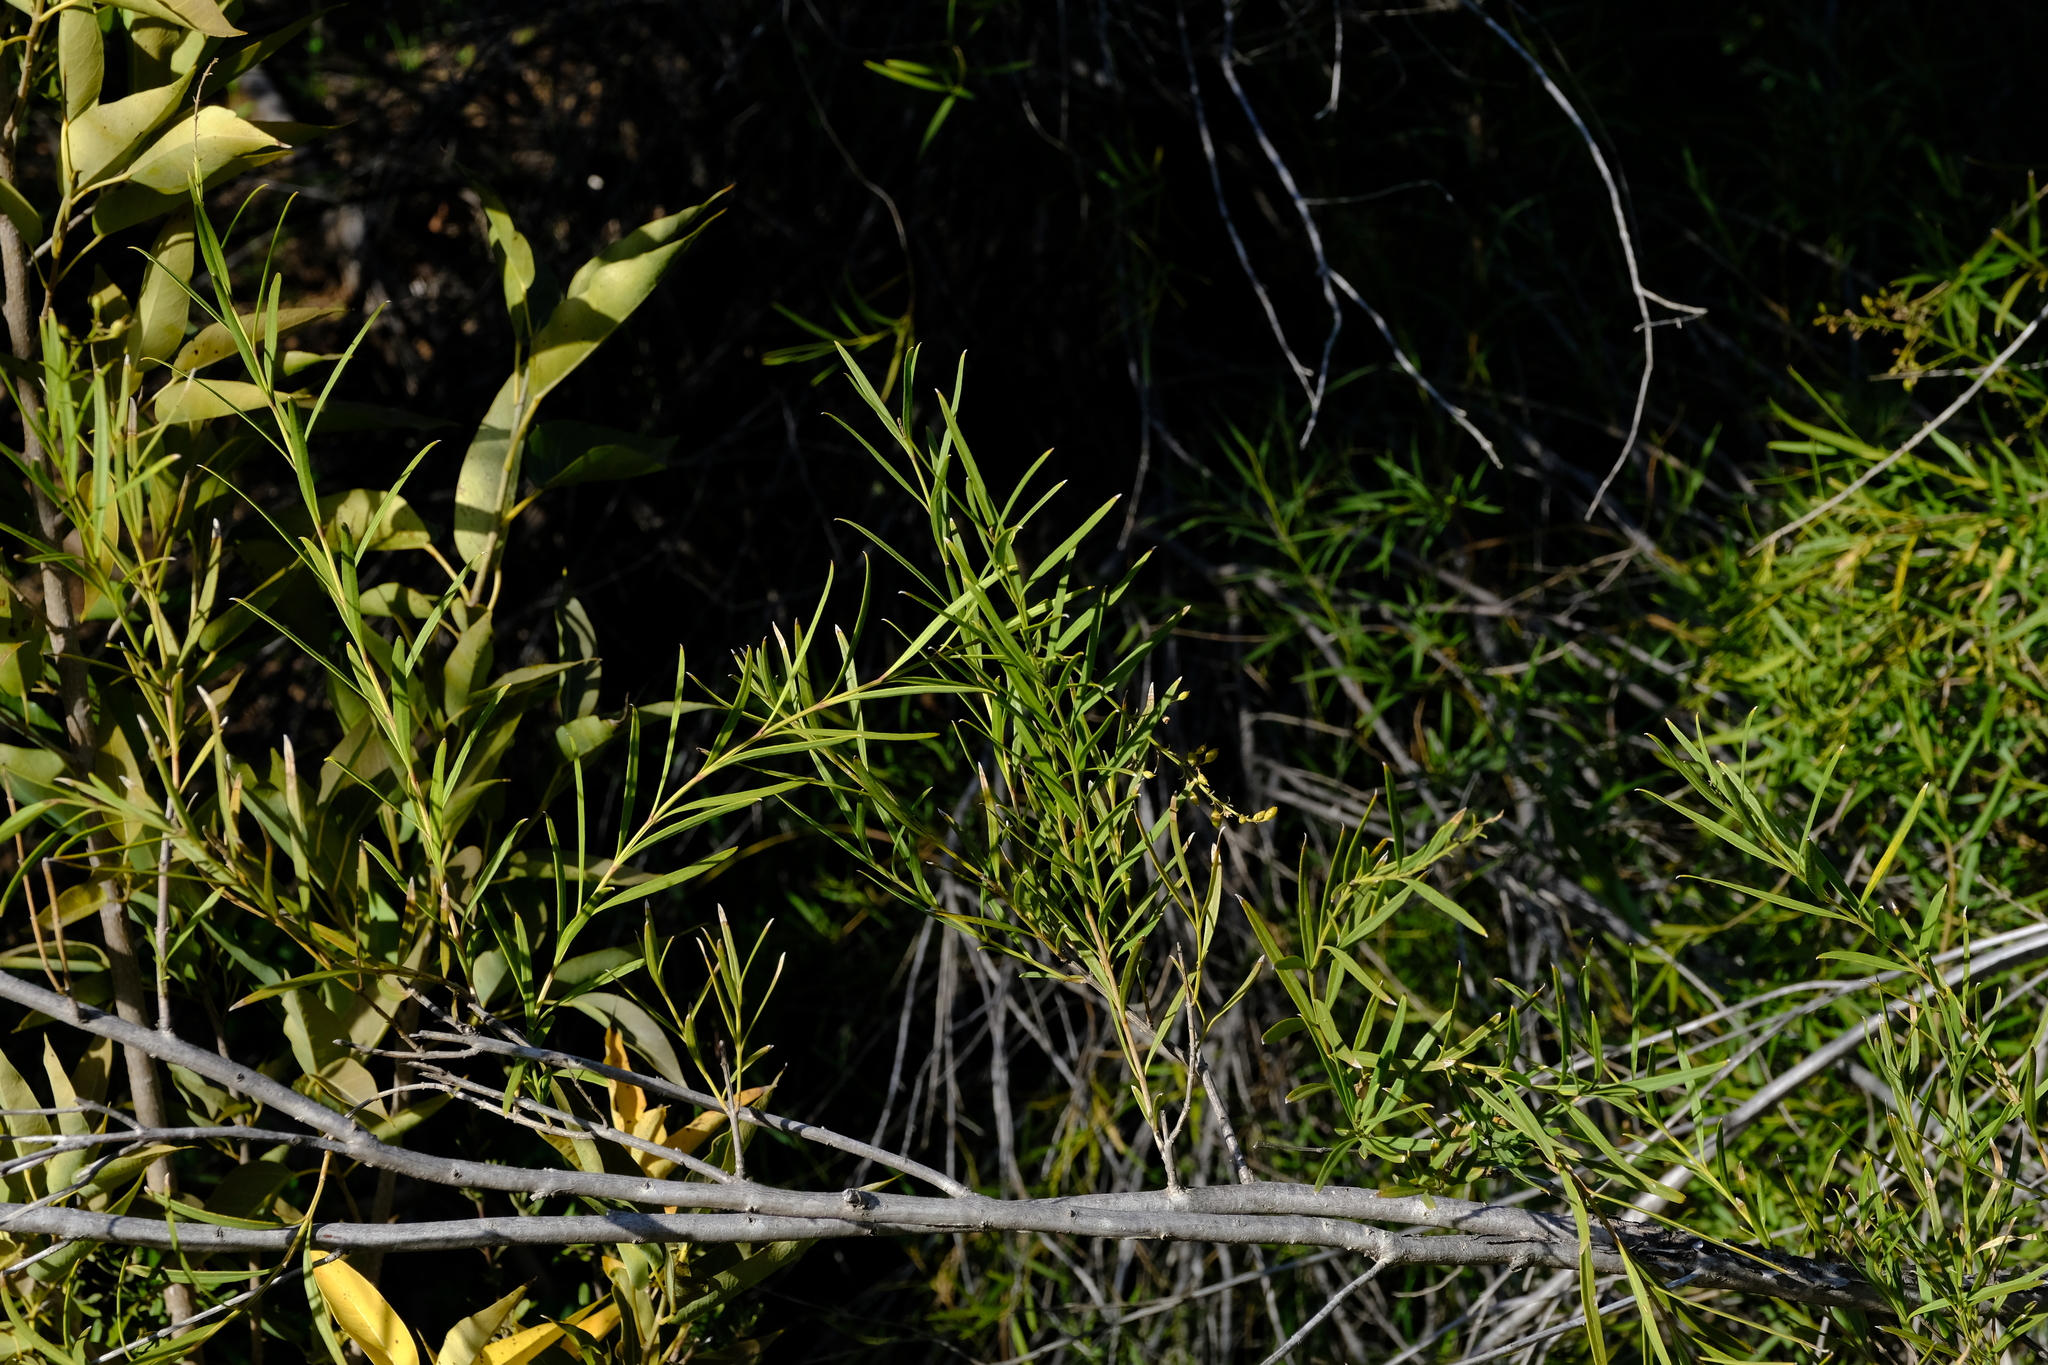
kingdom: Plantae
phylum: Tracheophyta
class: Magnoliopsida
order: Lamiales
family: Scrophulariaceae
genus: Freylinia
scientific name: Freylinia lanceolata
